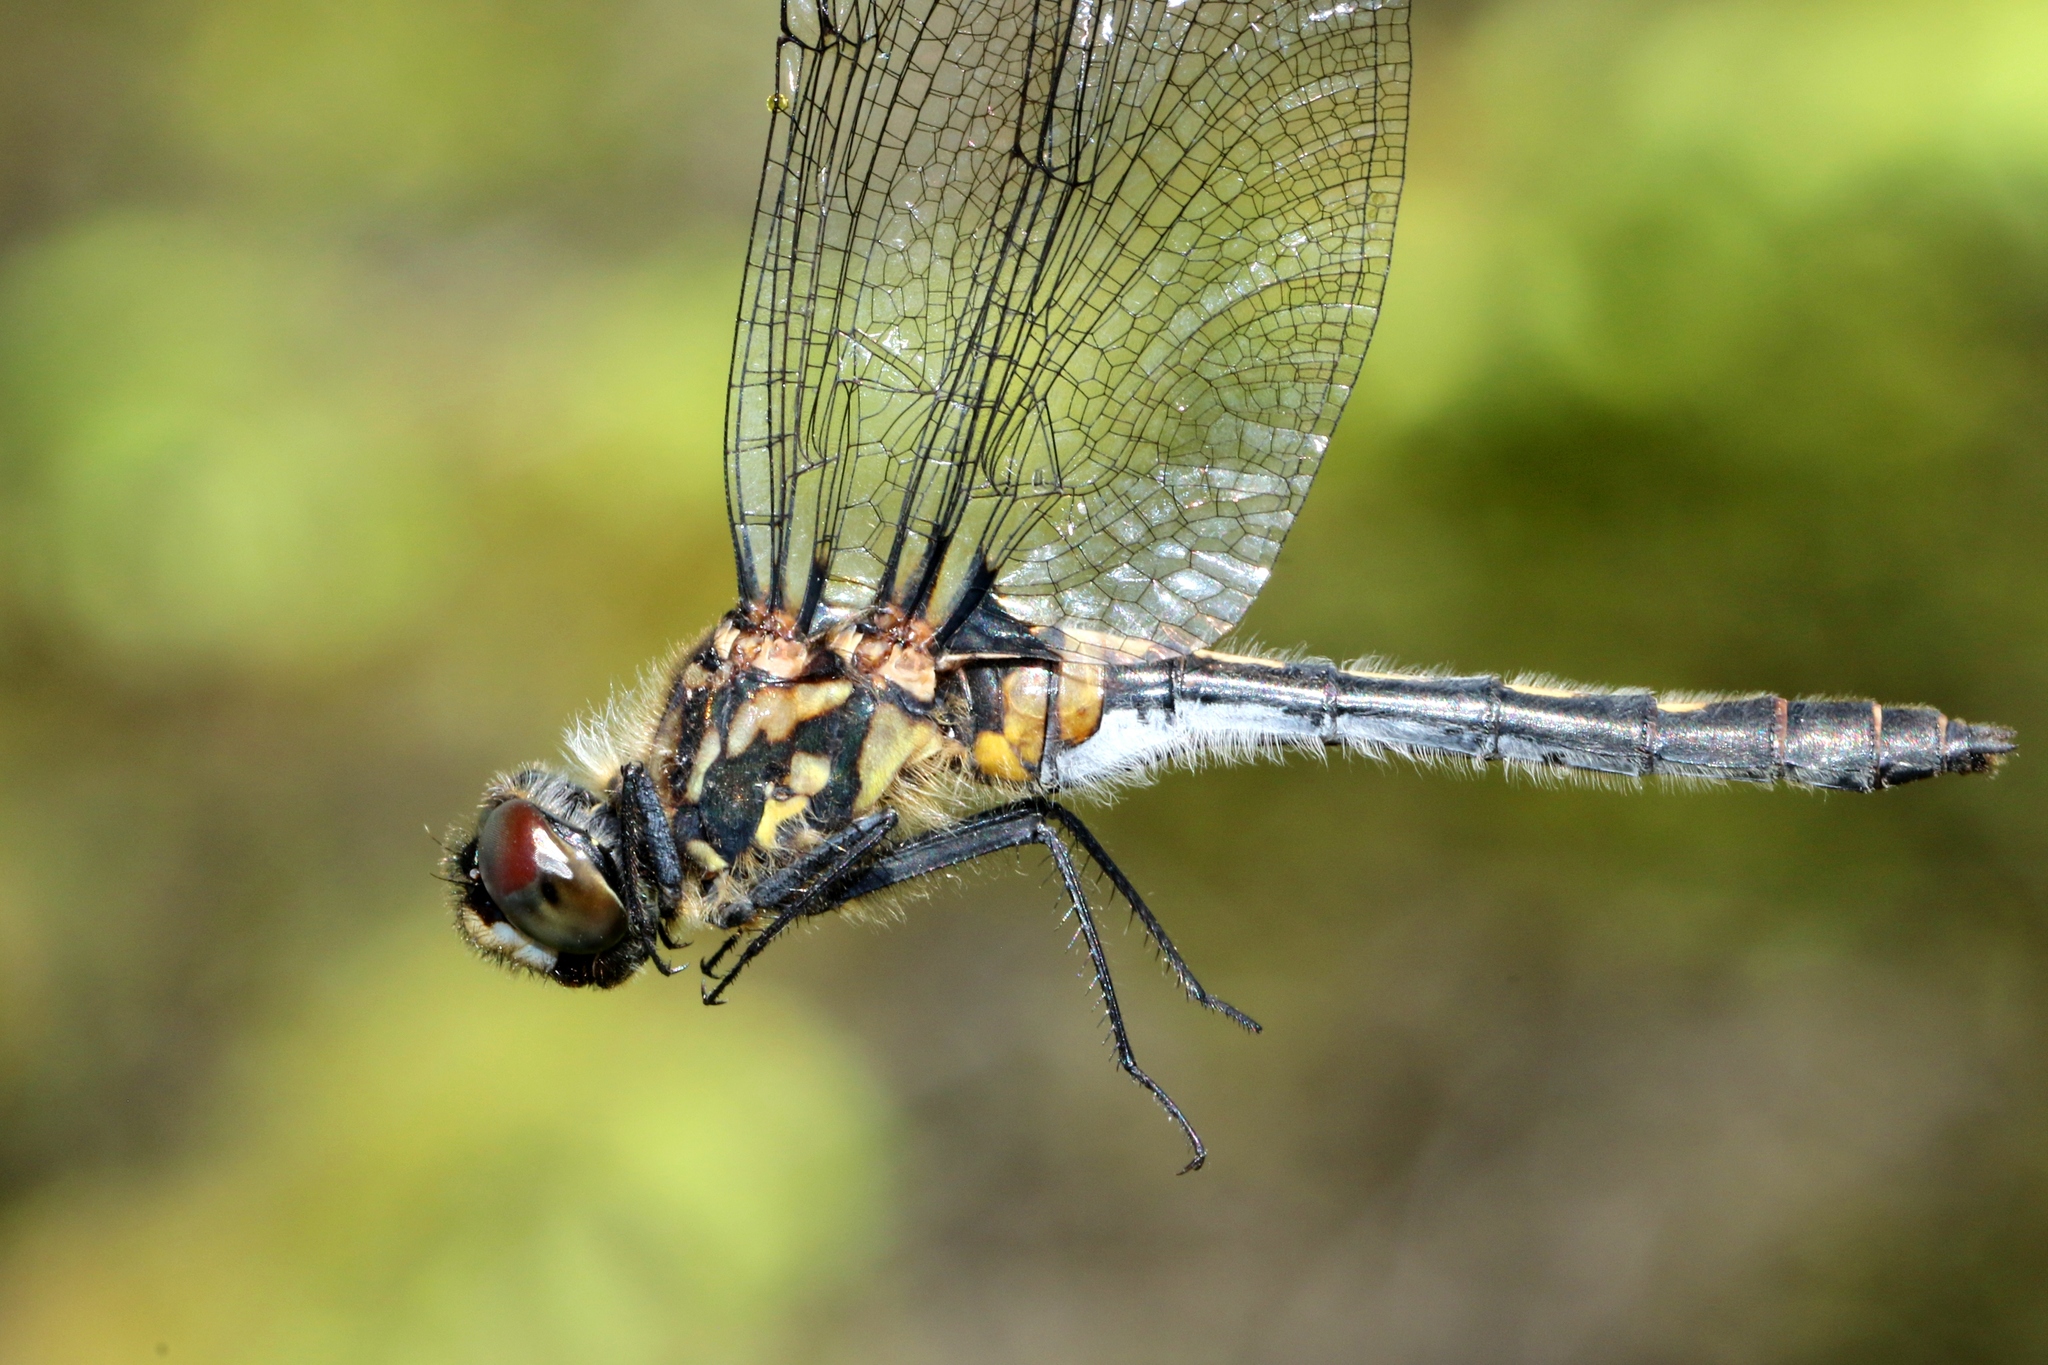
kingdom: Animalia
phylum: Arthropoda
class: Insecta
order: Odonata
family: Libellulidae
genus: Leucorrhinia
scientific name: Leucorrhinia glacialis
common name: Crimson-ringed whiteface
